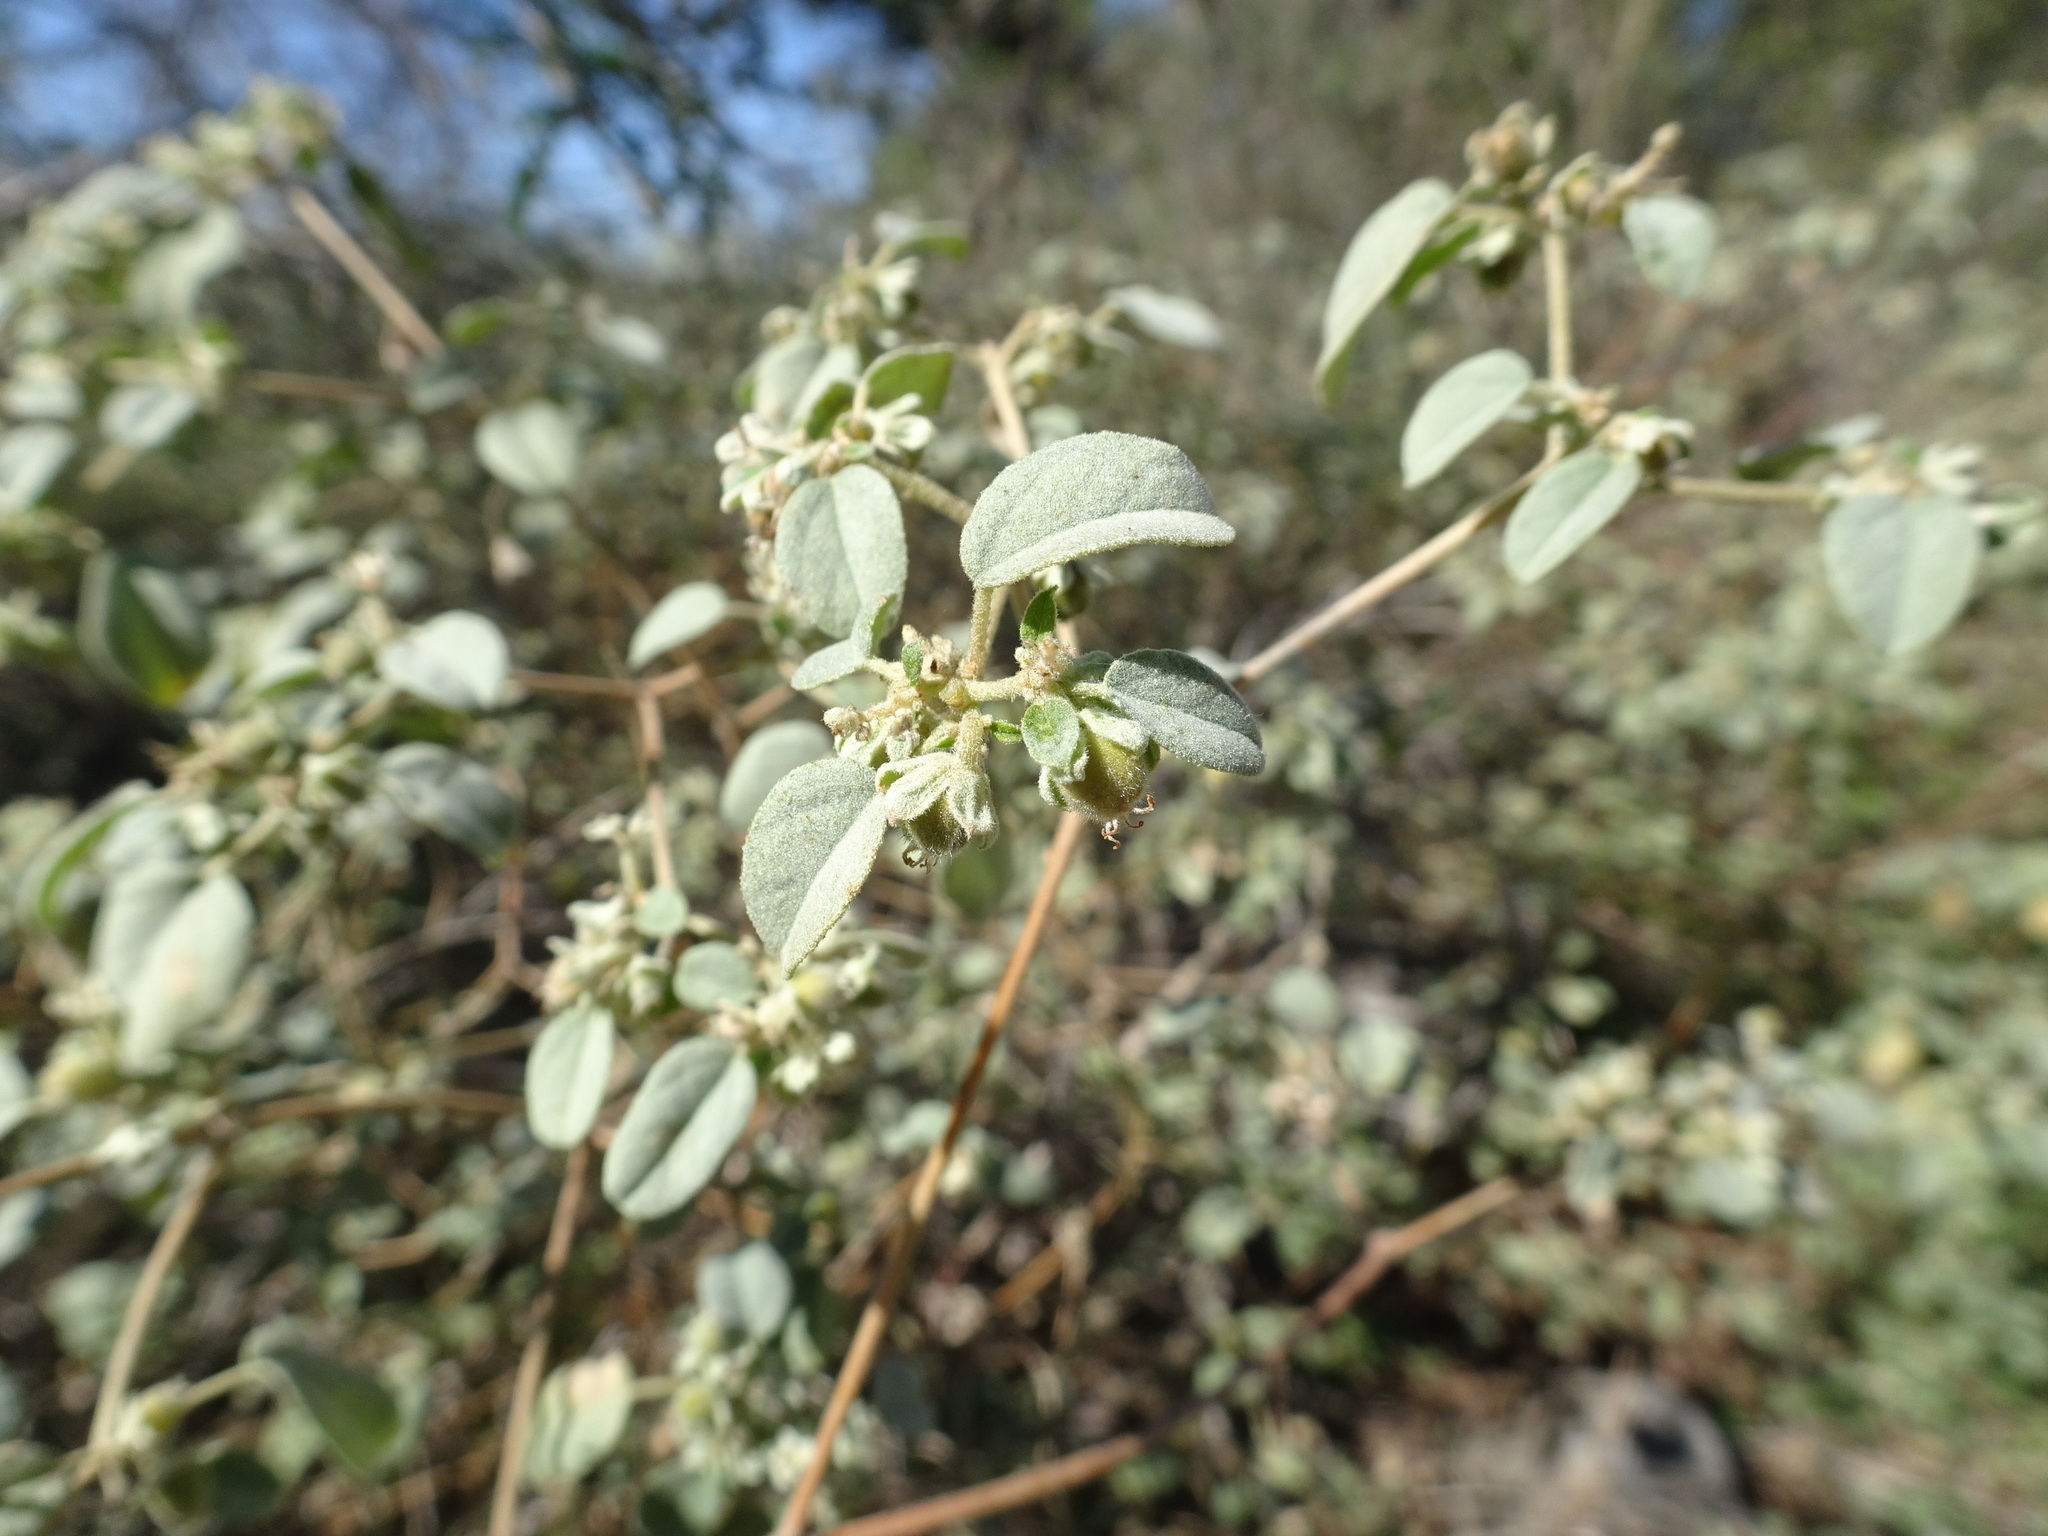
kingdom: Plantae
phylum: Tracheophyta
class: Magnoliopsida
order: Malpighiales
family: Euphorbiaceae
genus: Croton
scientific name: Croton monanthogynus
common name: One-seed croton
